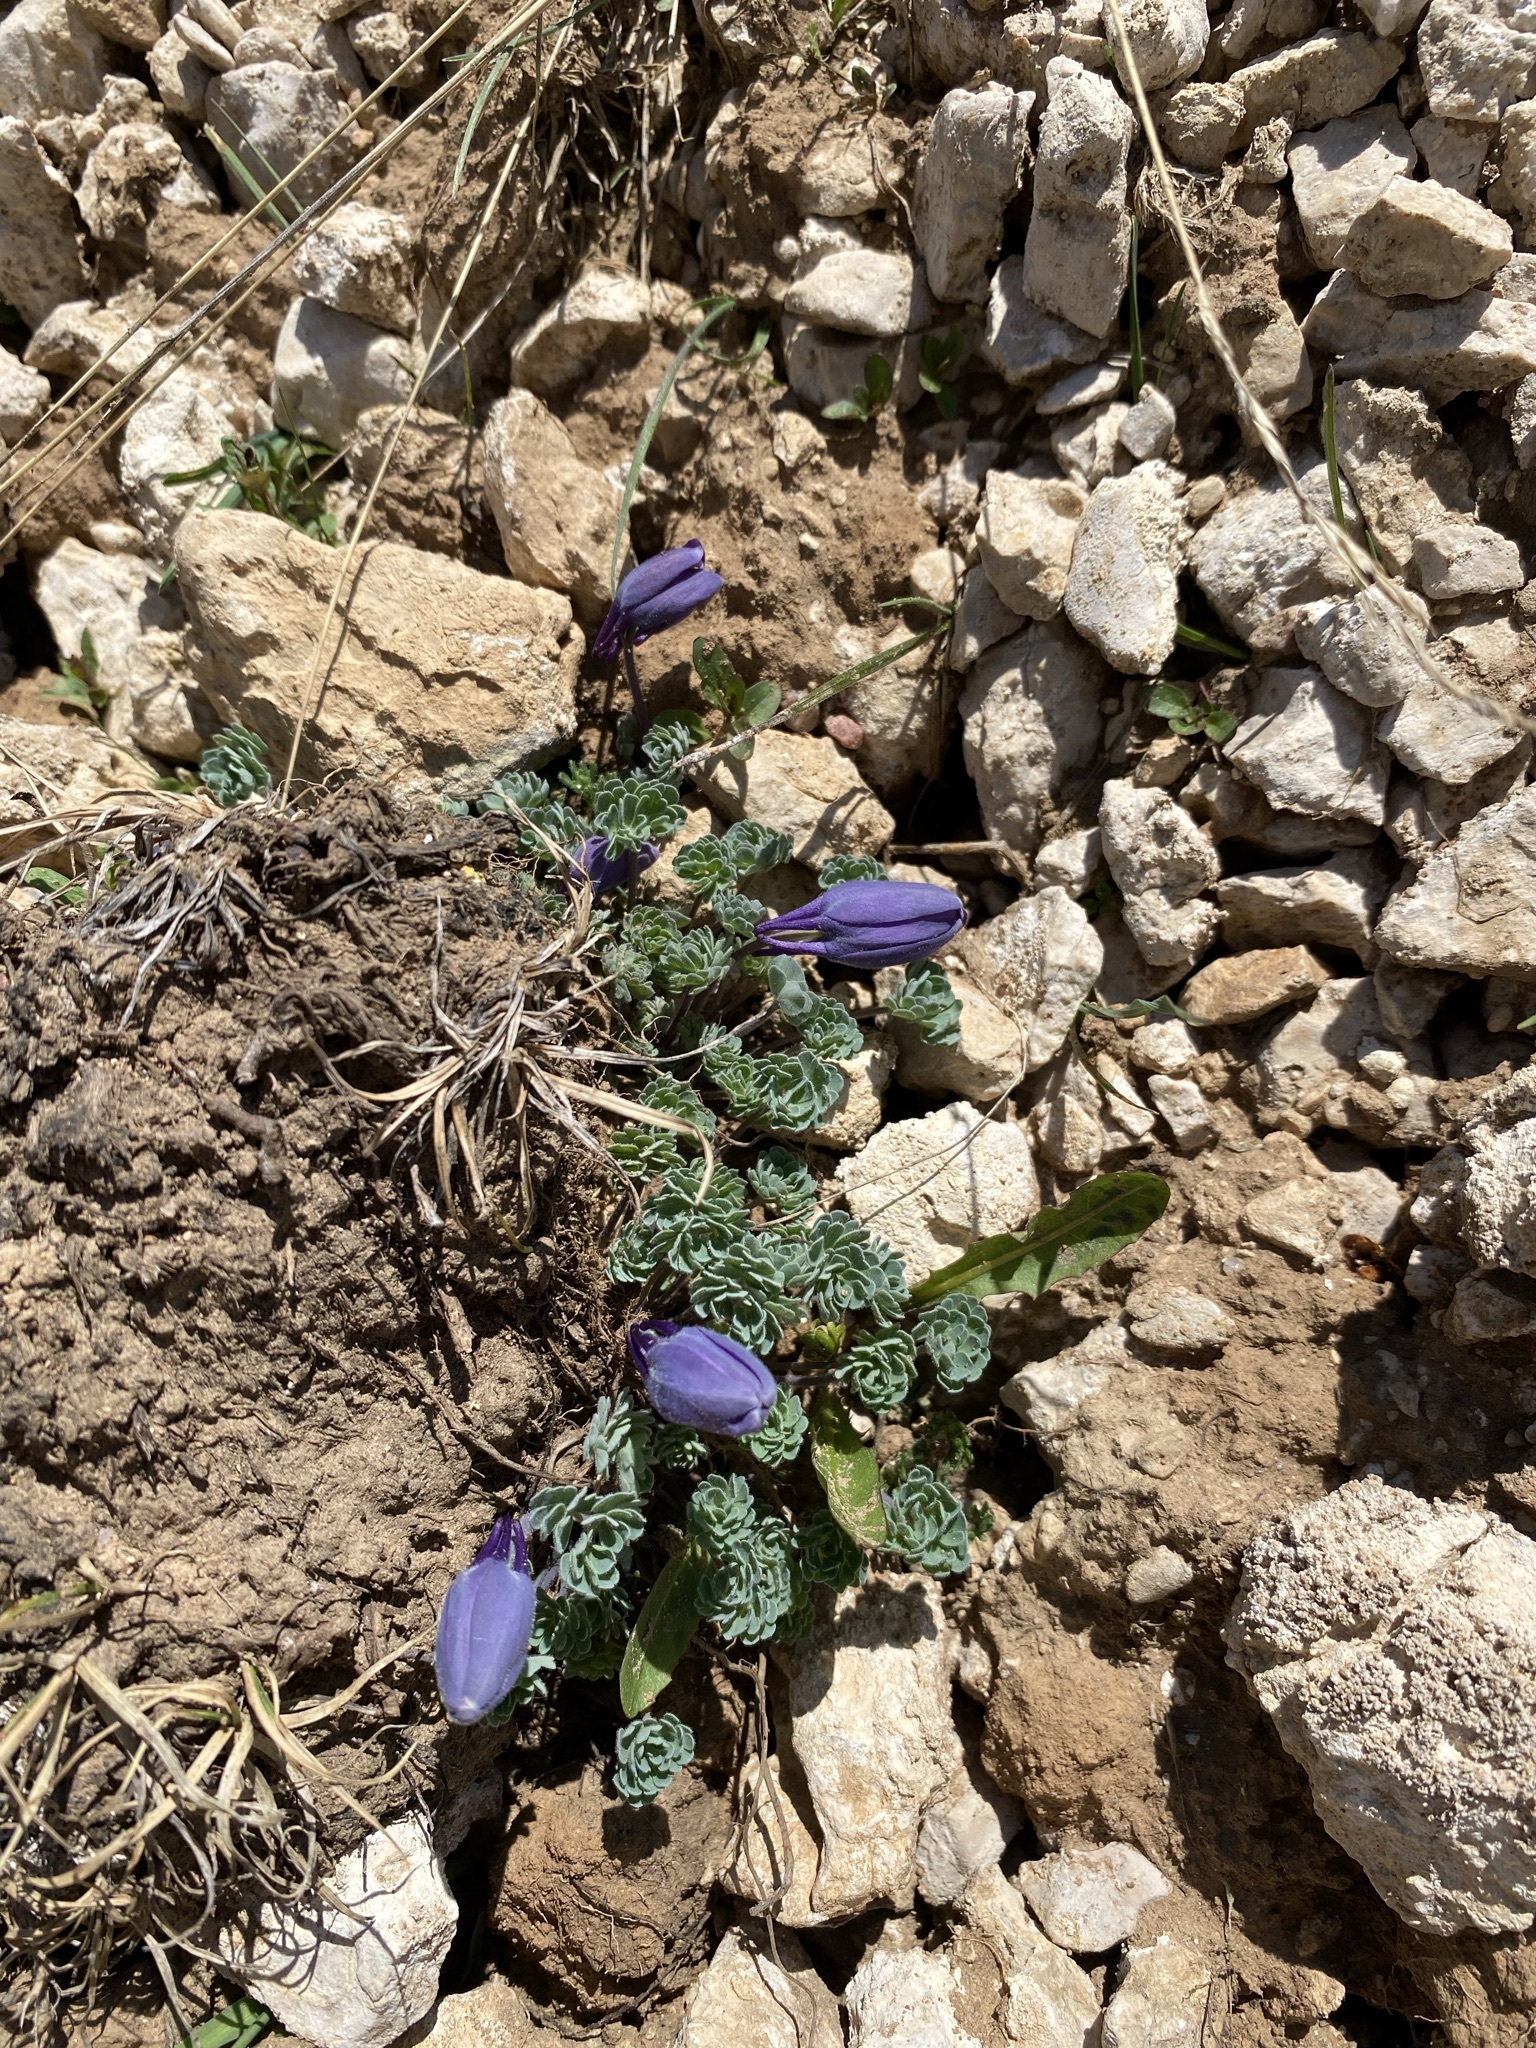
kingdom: Plantae
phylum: Tracheophyta
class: Magnoliopsida
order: Ranunculales
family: Ranunculaceae
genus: Aquilegia
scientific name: Aquilegia jonesii
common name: Jones' columbine
